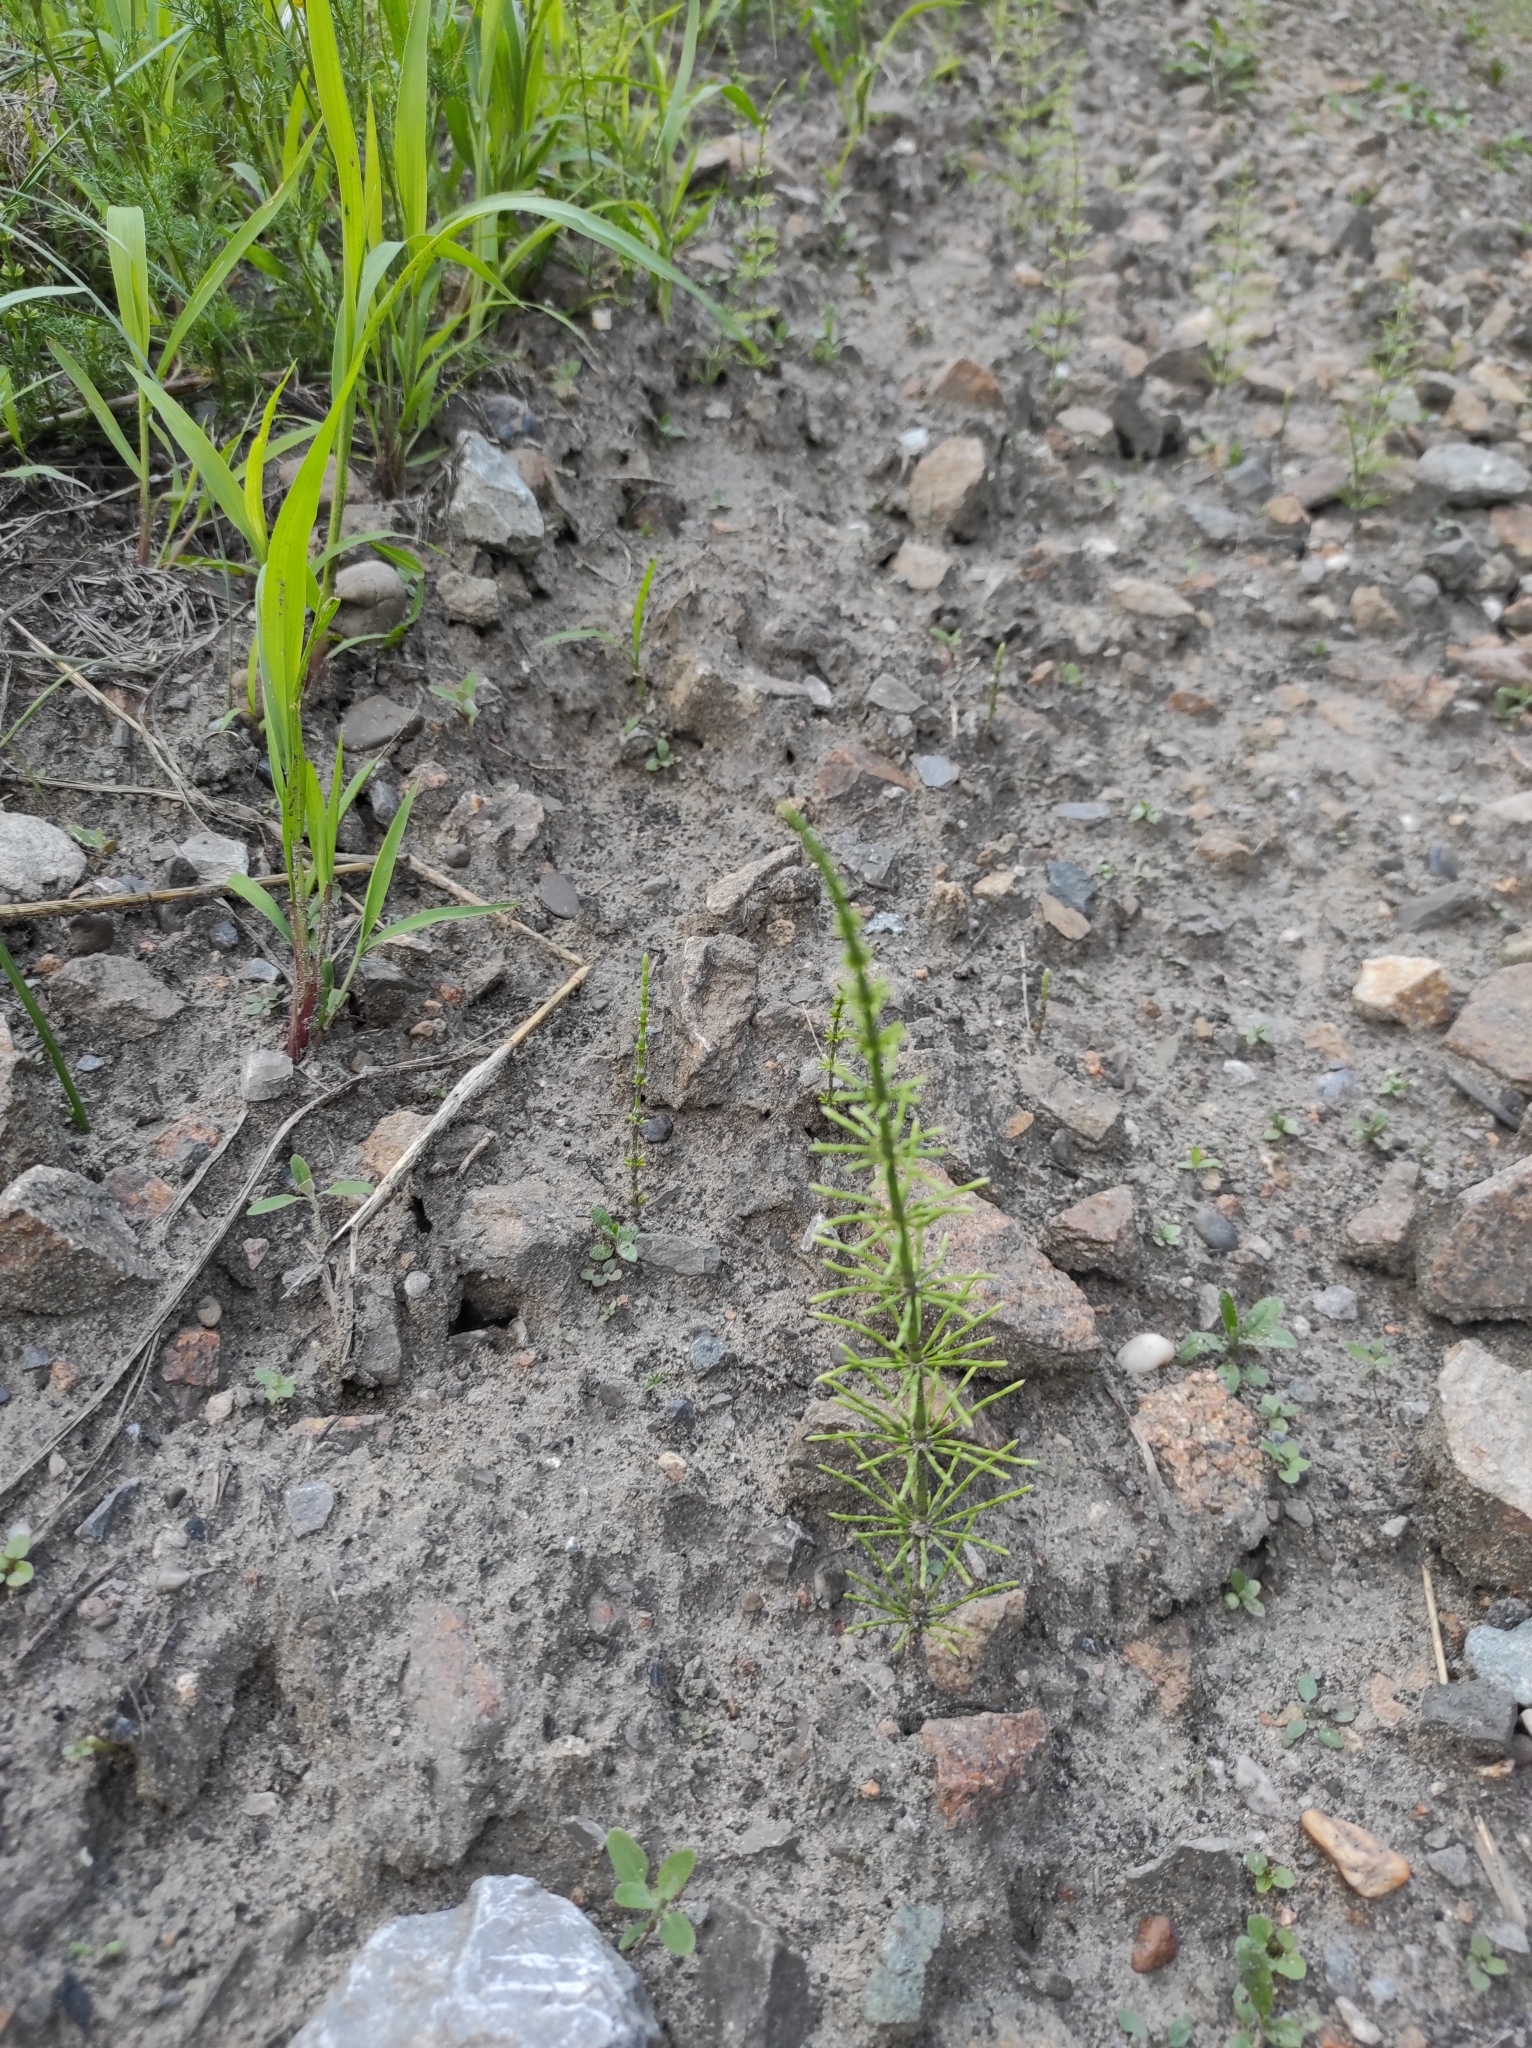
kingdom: Plantae
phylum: Tracheophyta
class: Polypodiopsida
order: Equisetales
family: Equisetaceae
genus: Equisetum
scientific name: Equisetum arvense
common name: Field horsetail
